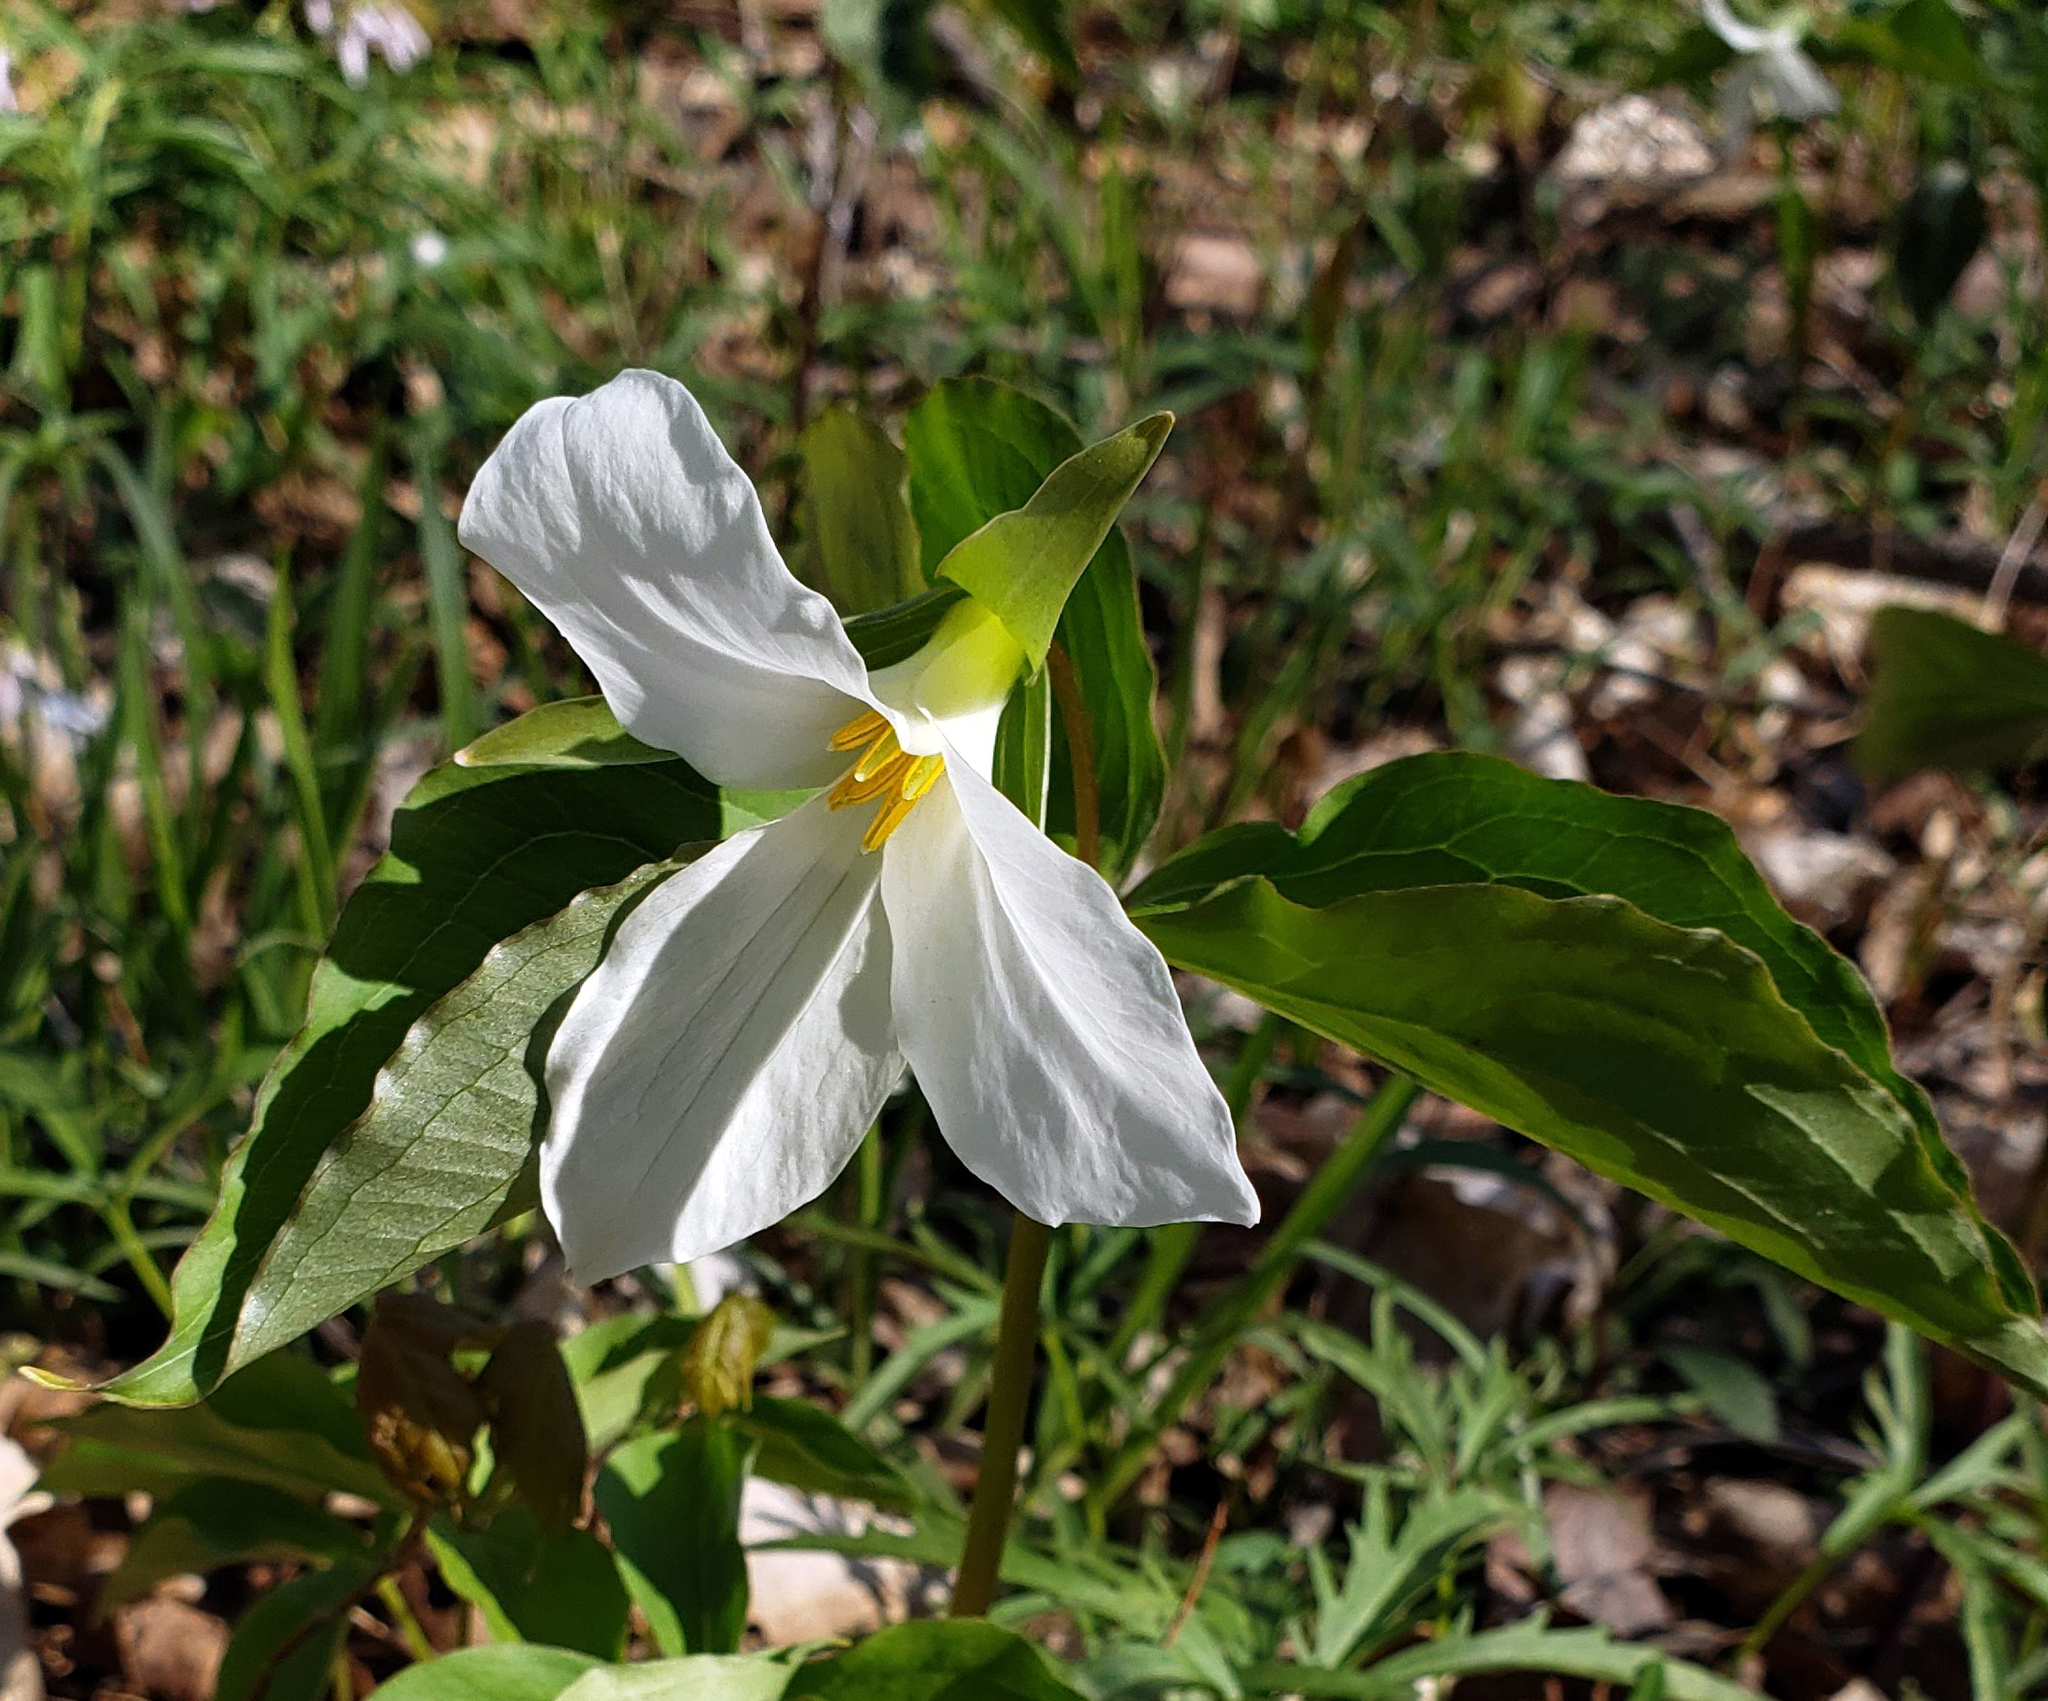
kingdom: Plantae
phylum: Tracheophyta
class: Liliopsida
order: Liliales
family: Melanthiaceae
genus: Trillium
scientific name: Trillium grandiflorum
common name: Great white trillium
